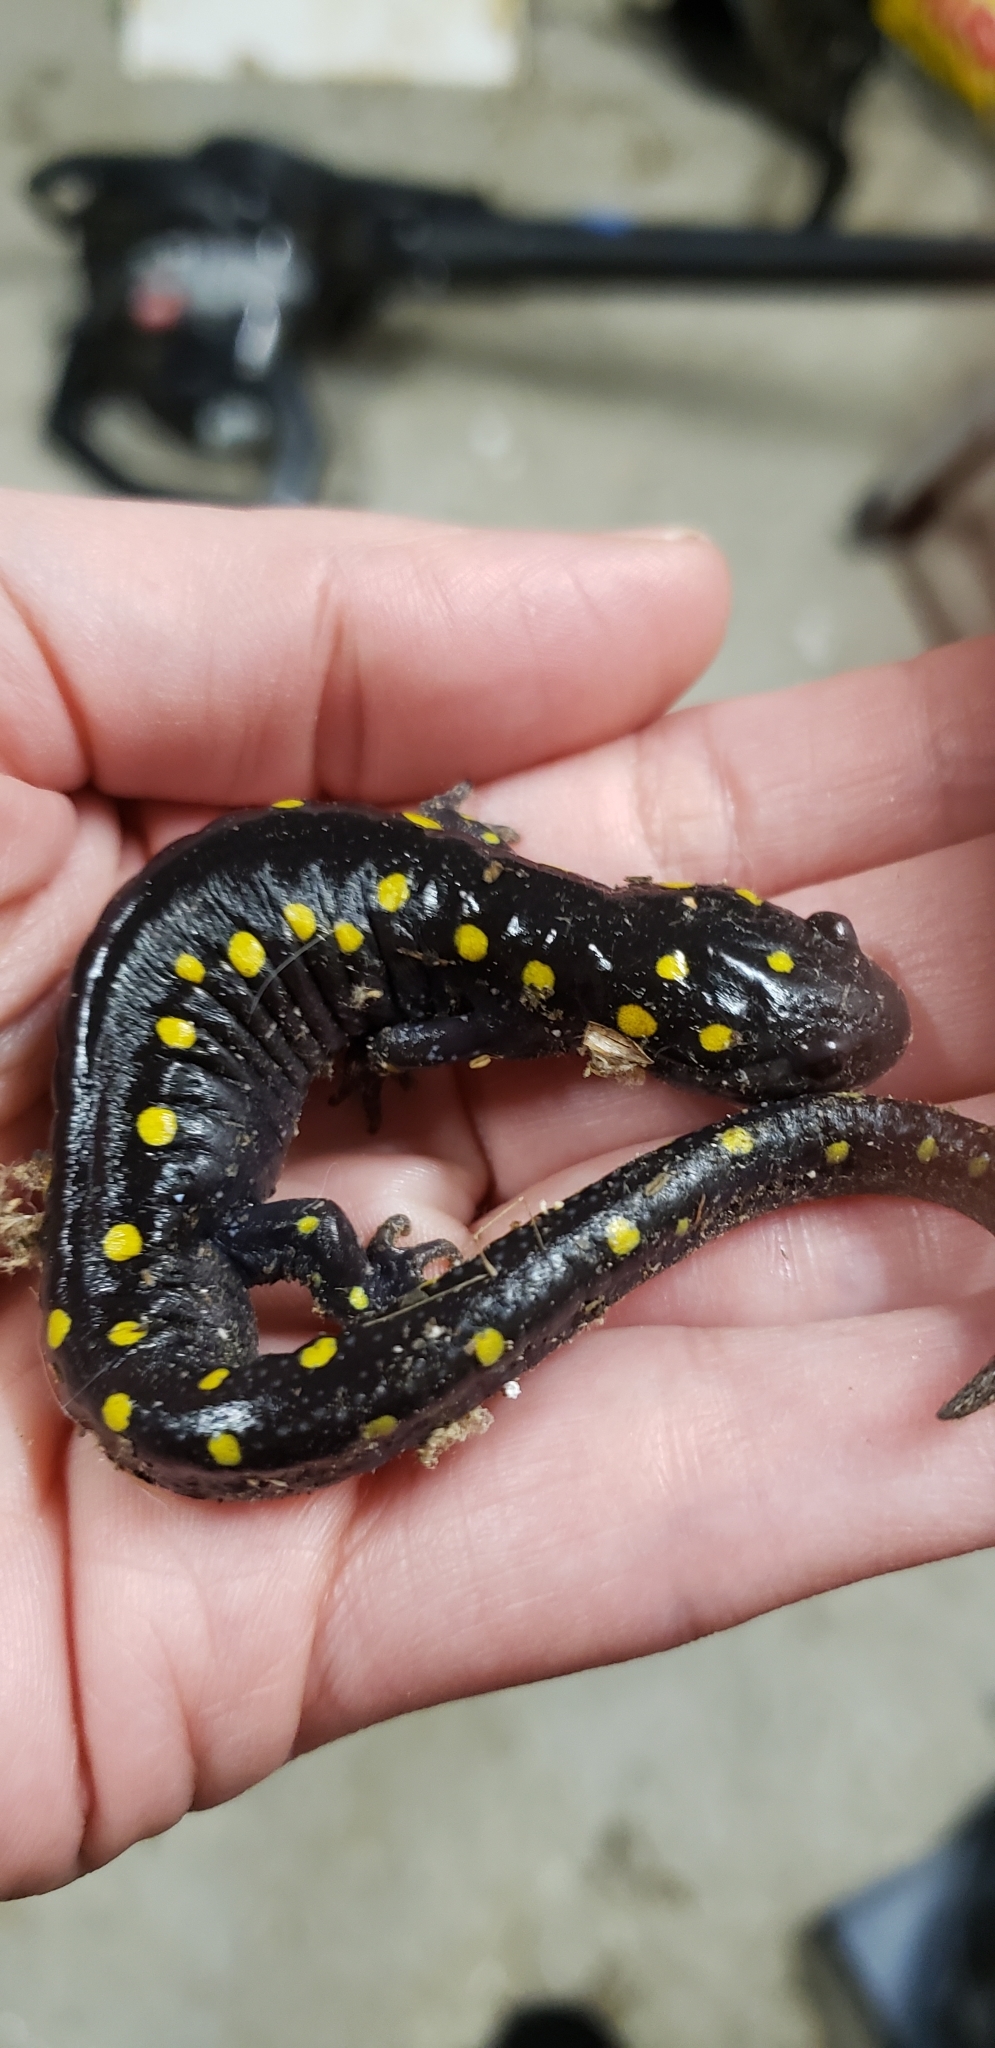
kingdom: Animalia
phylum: Chordata
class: Amphibia
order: Caudata
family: Ambystomatidae
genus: Ambystoma
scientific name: Ambystoma maculatum
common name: Spotted salamander
